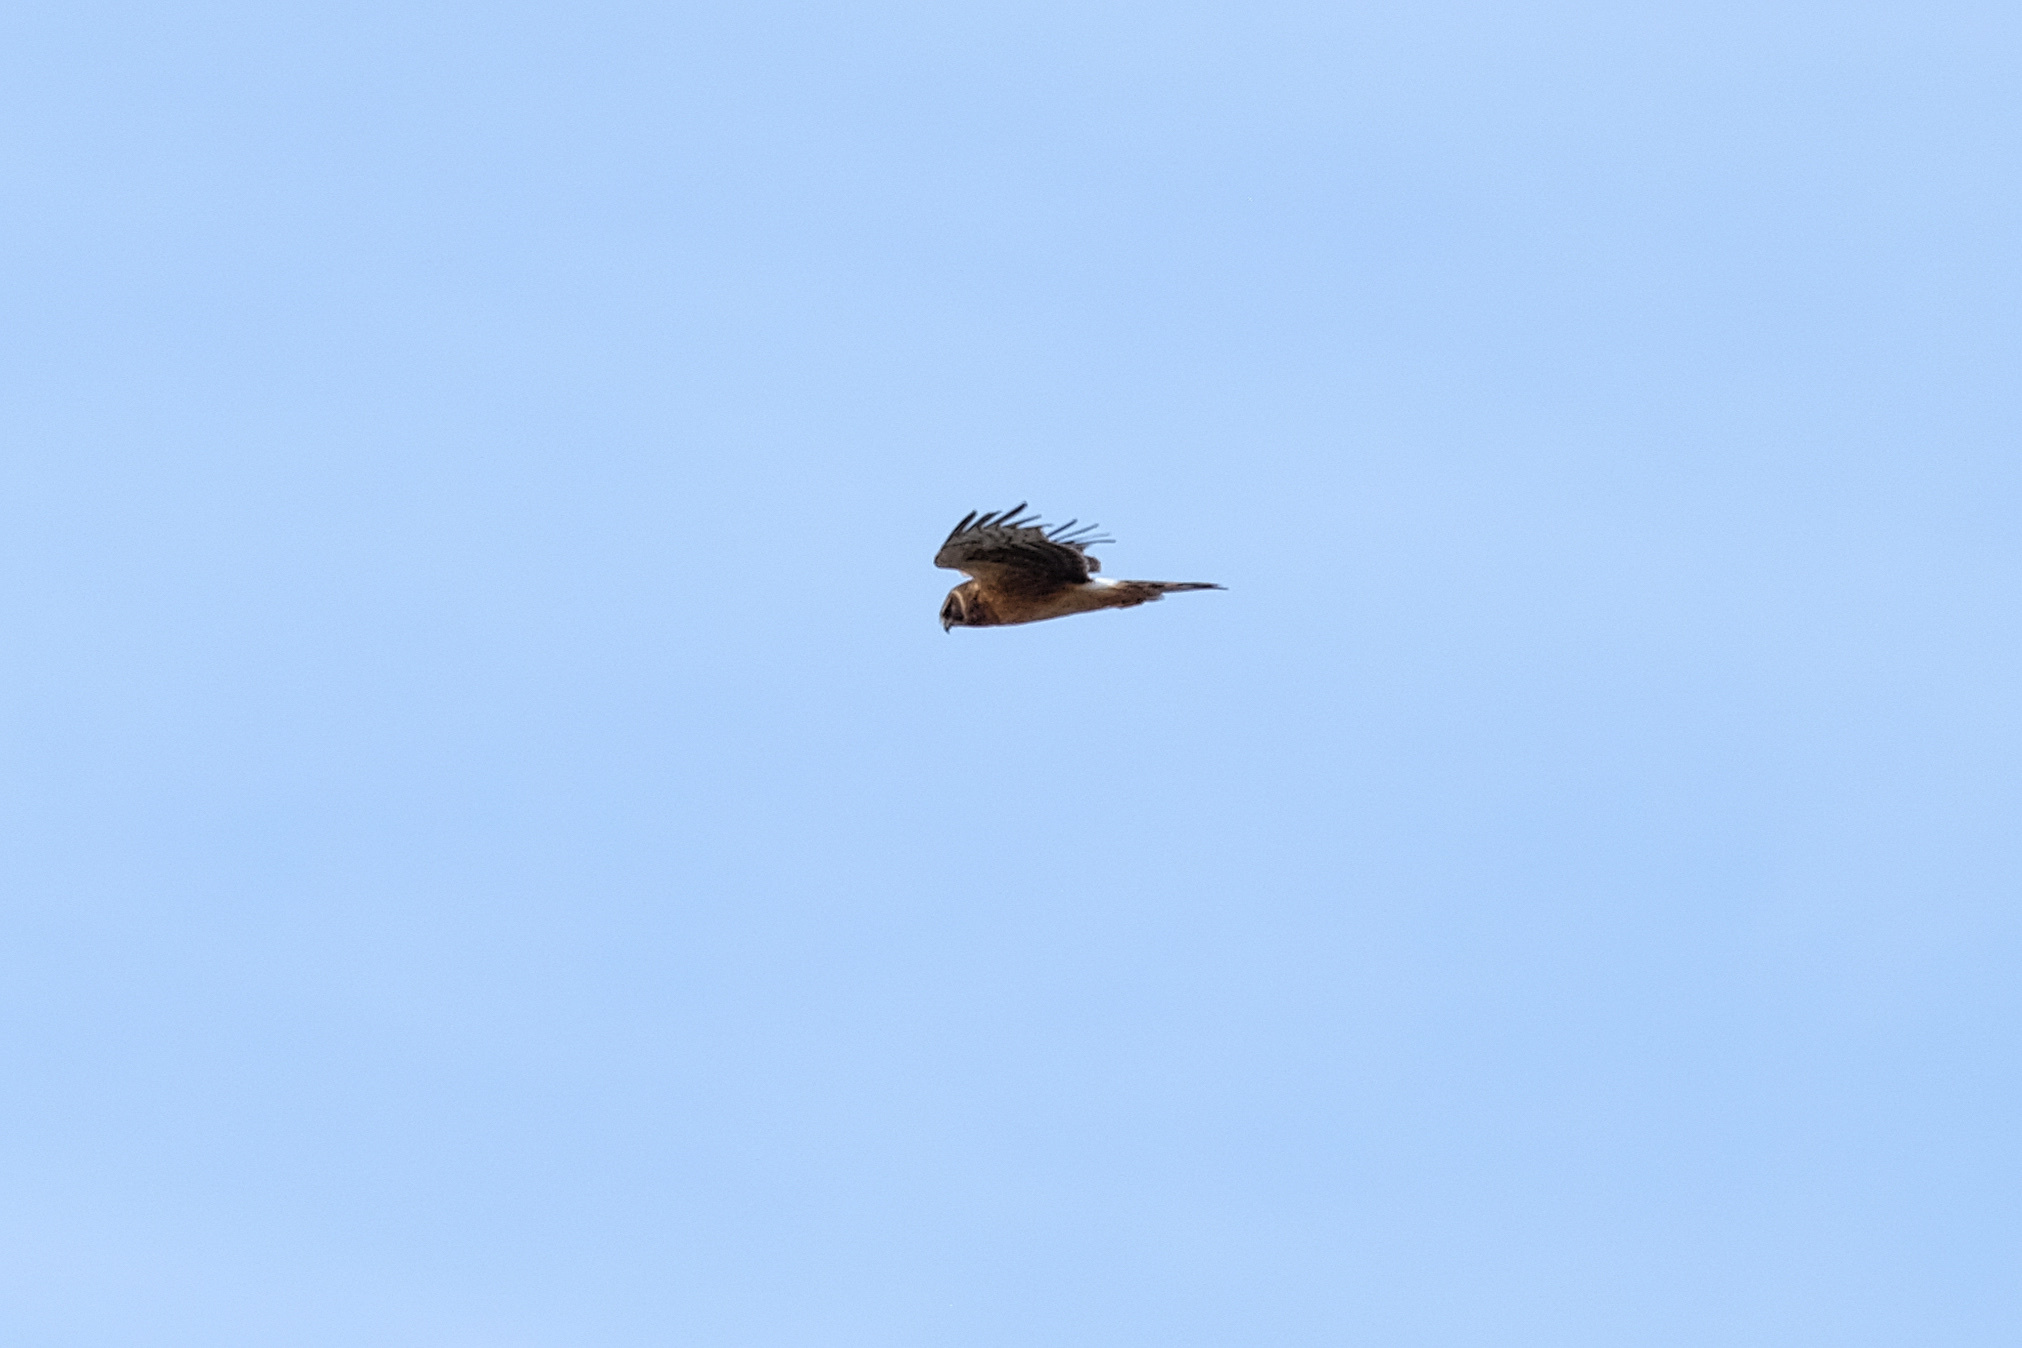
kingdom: Animalia
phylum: Chordata
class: Aves
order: Accipitriformes
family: Accipitridae
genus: Circus
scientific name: Circus cyaneus
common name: Hen harrier
